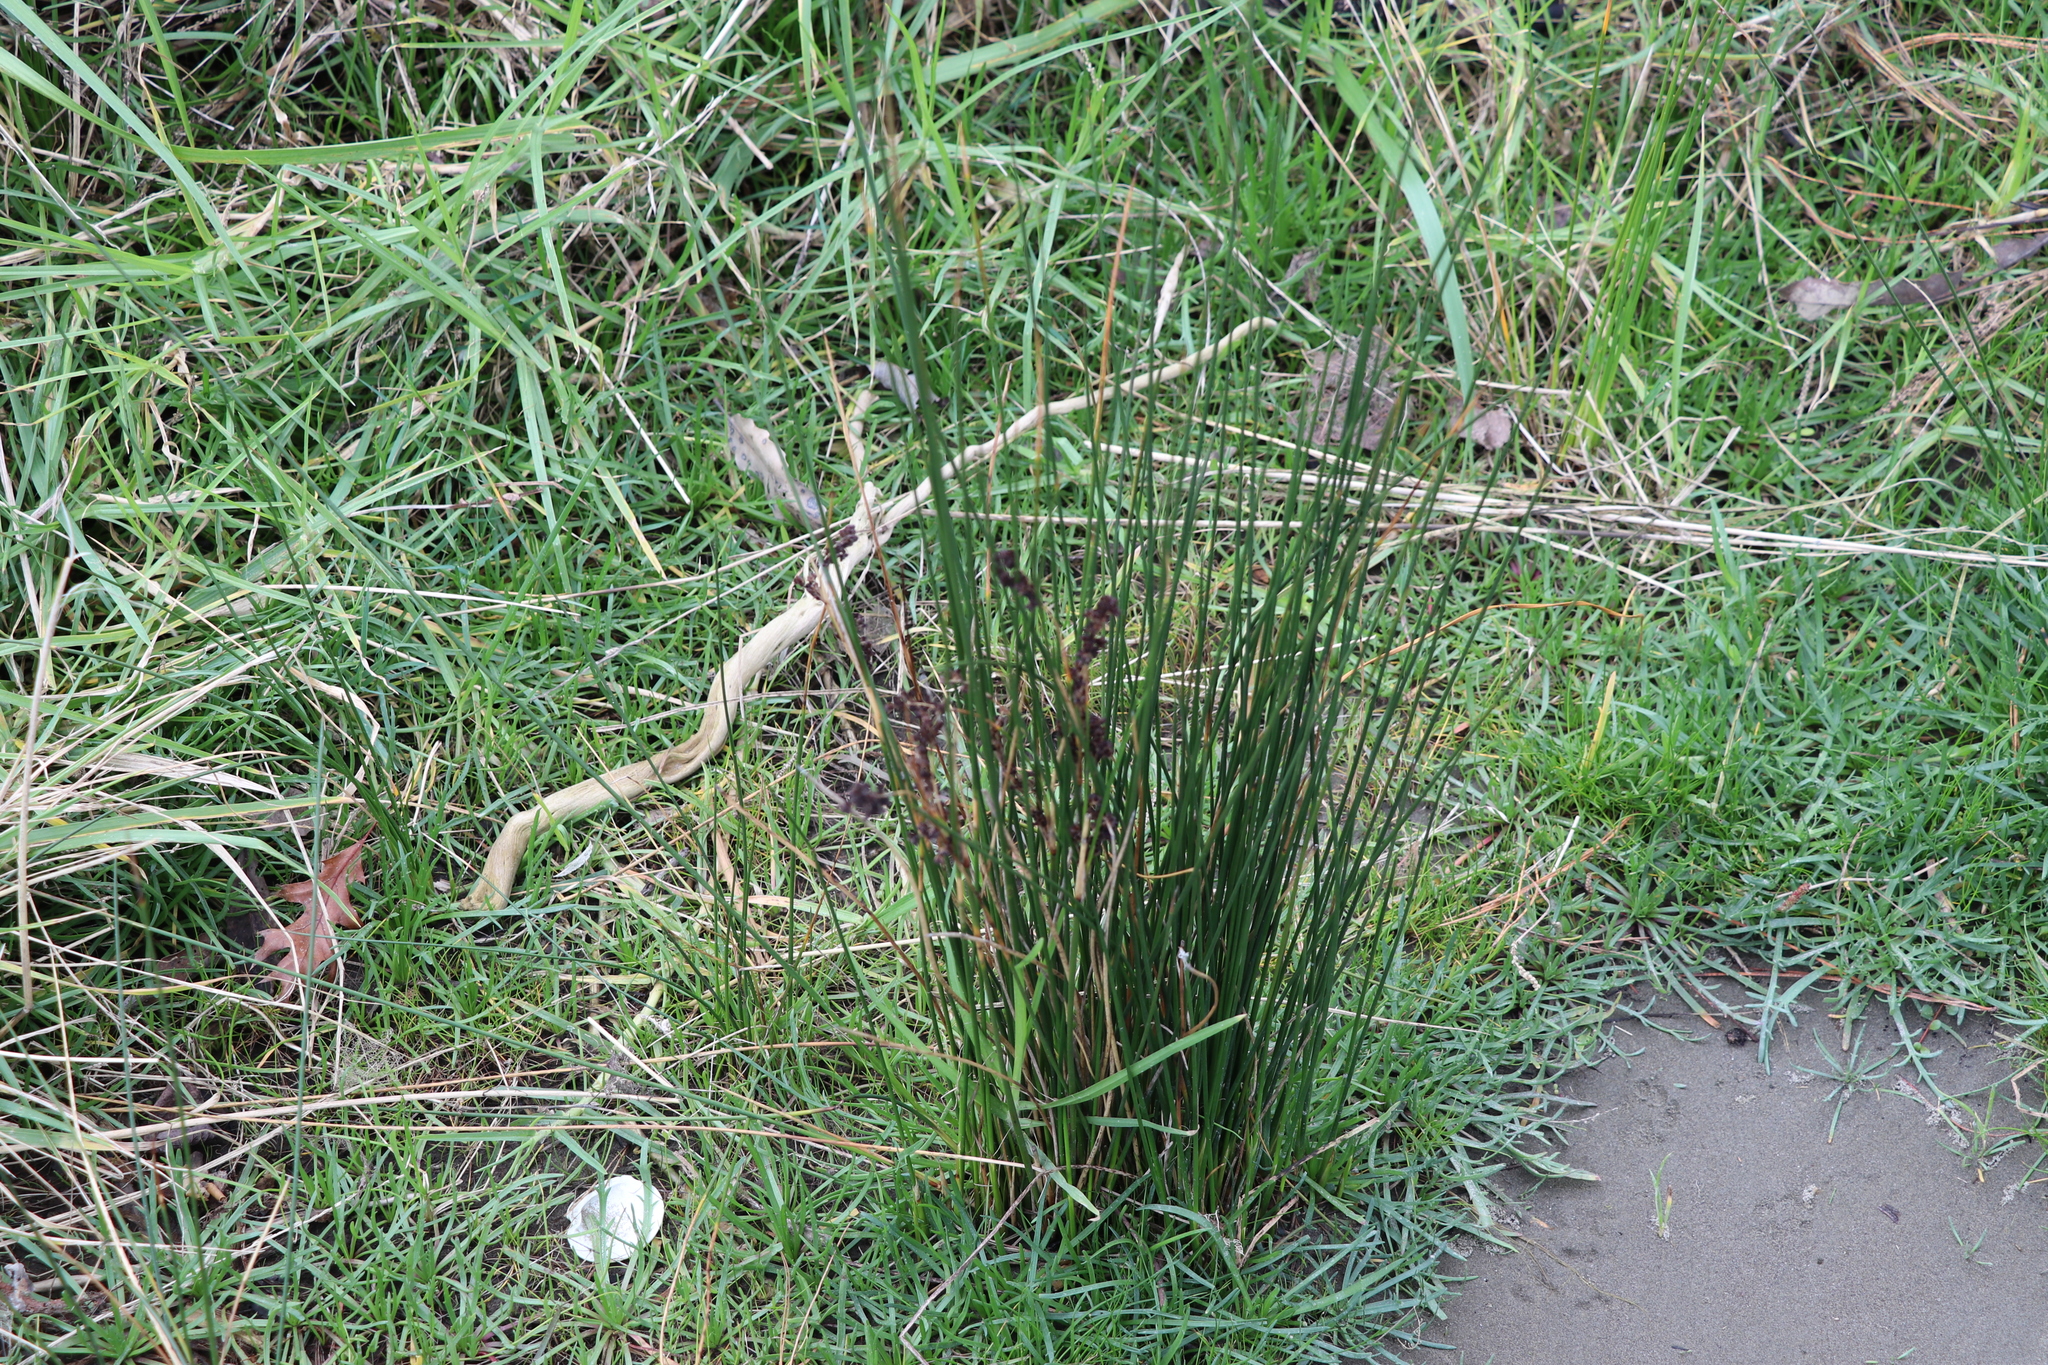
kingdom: Plantae
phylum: Tracheophyta
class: Liliopsida
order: Poales
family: Juncaceae
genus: Juncus
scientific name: Juncus effusus
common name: Soft rush
